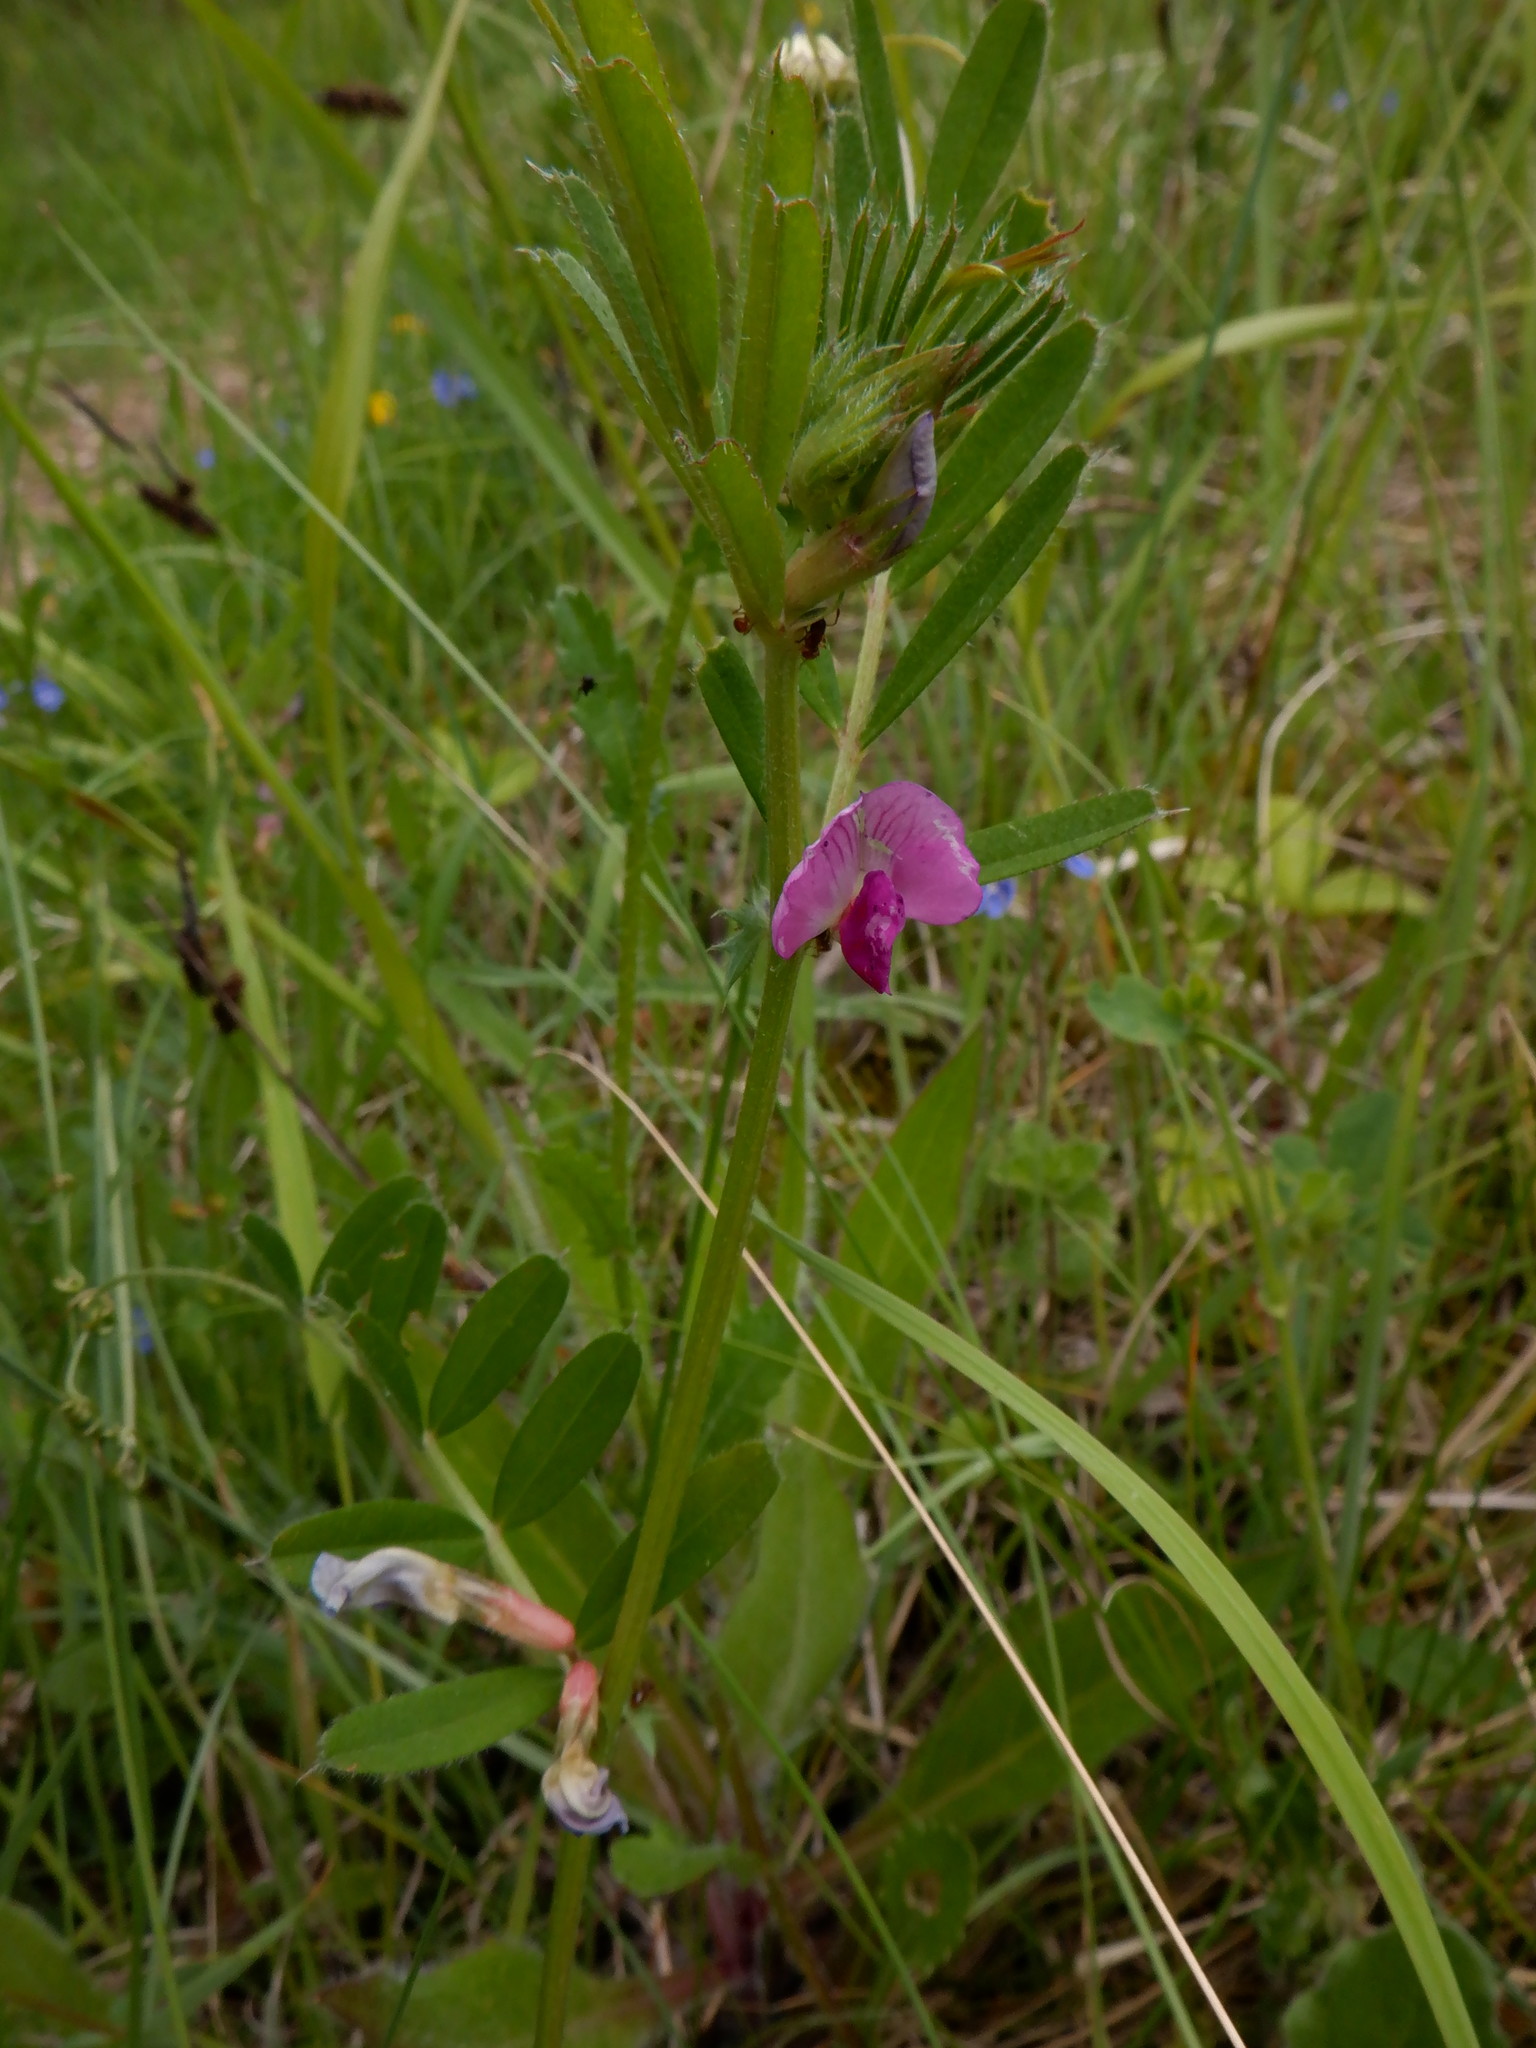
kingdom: Plantae
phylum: Tracheophyta
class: Magnoliopsida
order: Fabales
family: Fabaceae
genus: Vicia
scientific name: Vicia sativa
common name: Garden vetch
